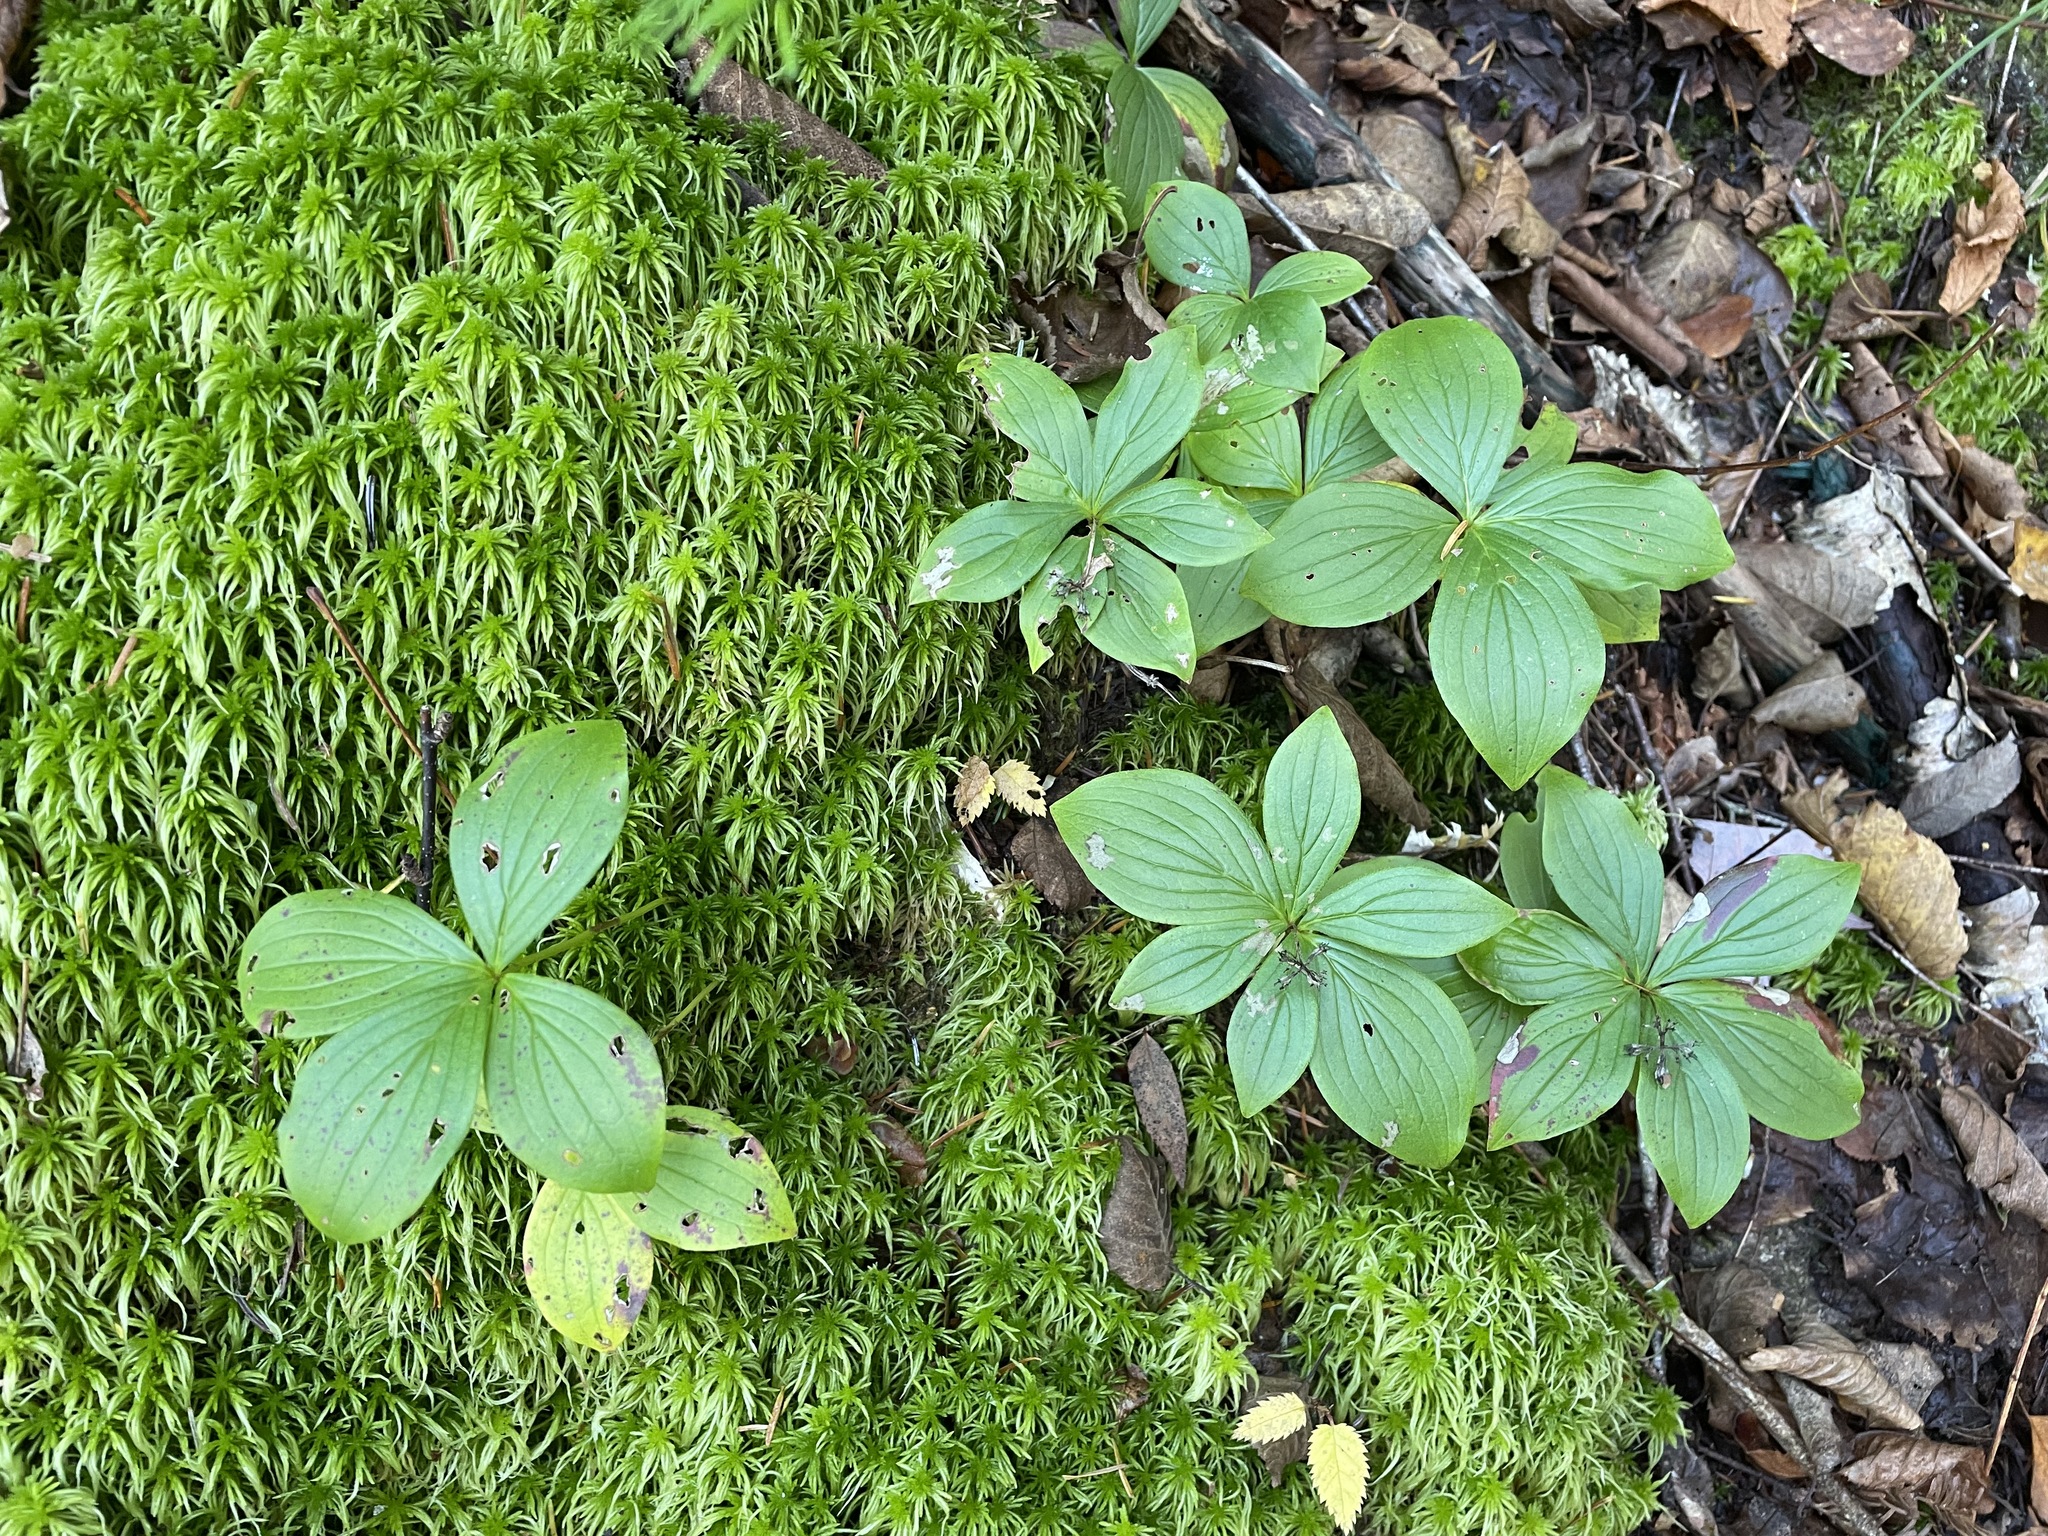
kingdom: Plantae
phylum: Tracheophyta
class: Magnoliopsida
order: Cornales
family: Cornaceae
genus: Cornus
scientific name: Cornus canadensis
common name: Creeping dogwood
